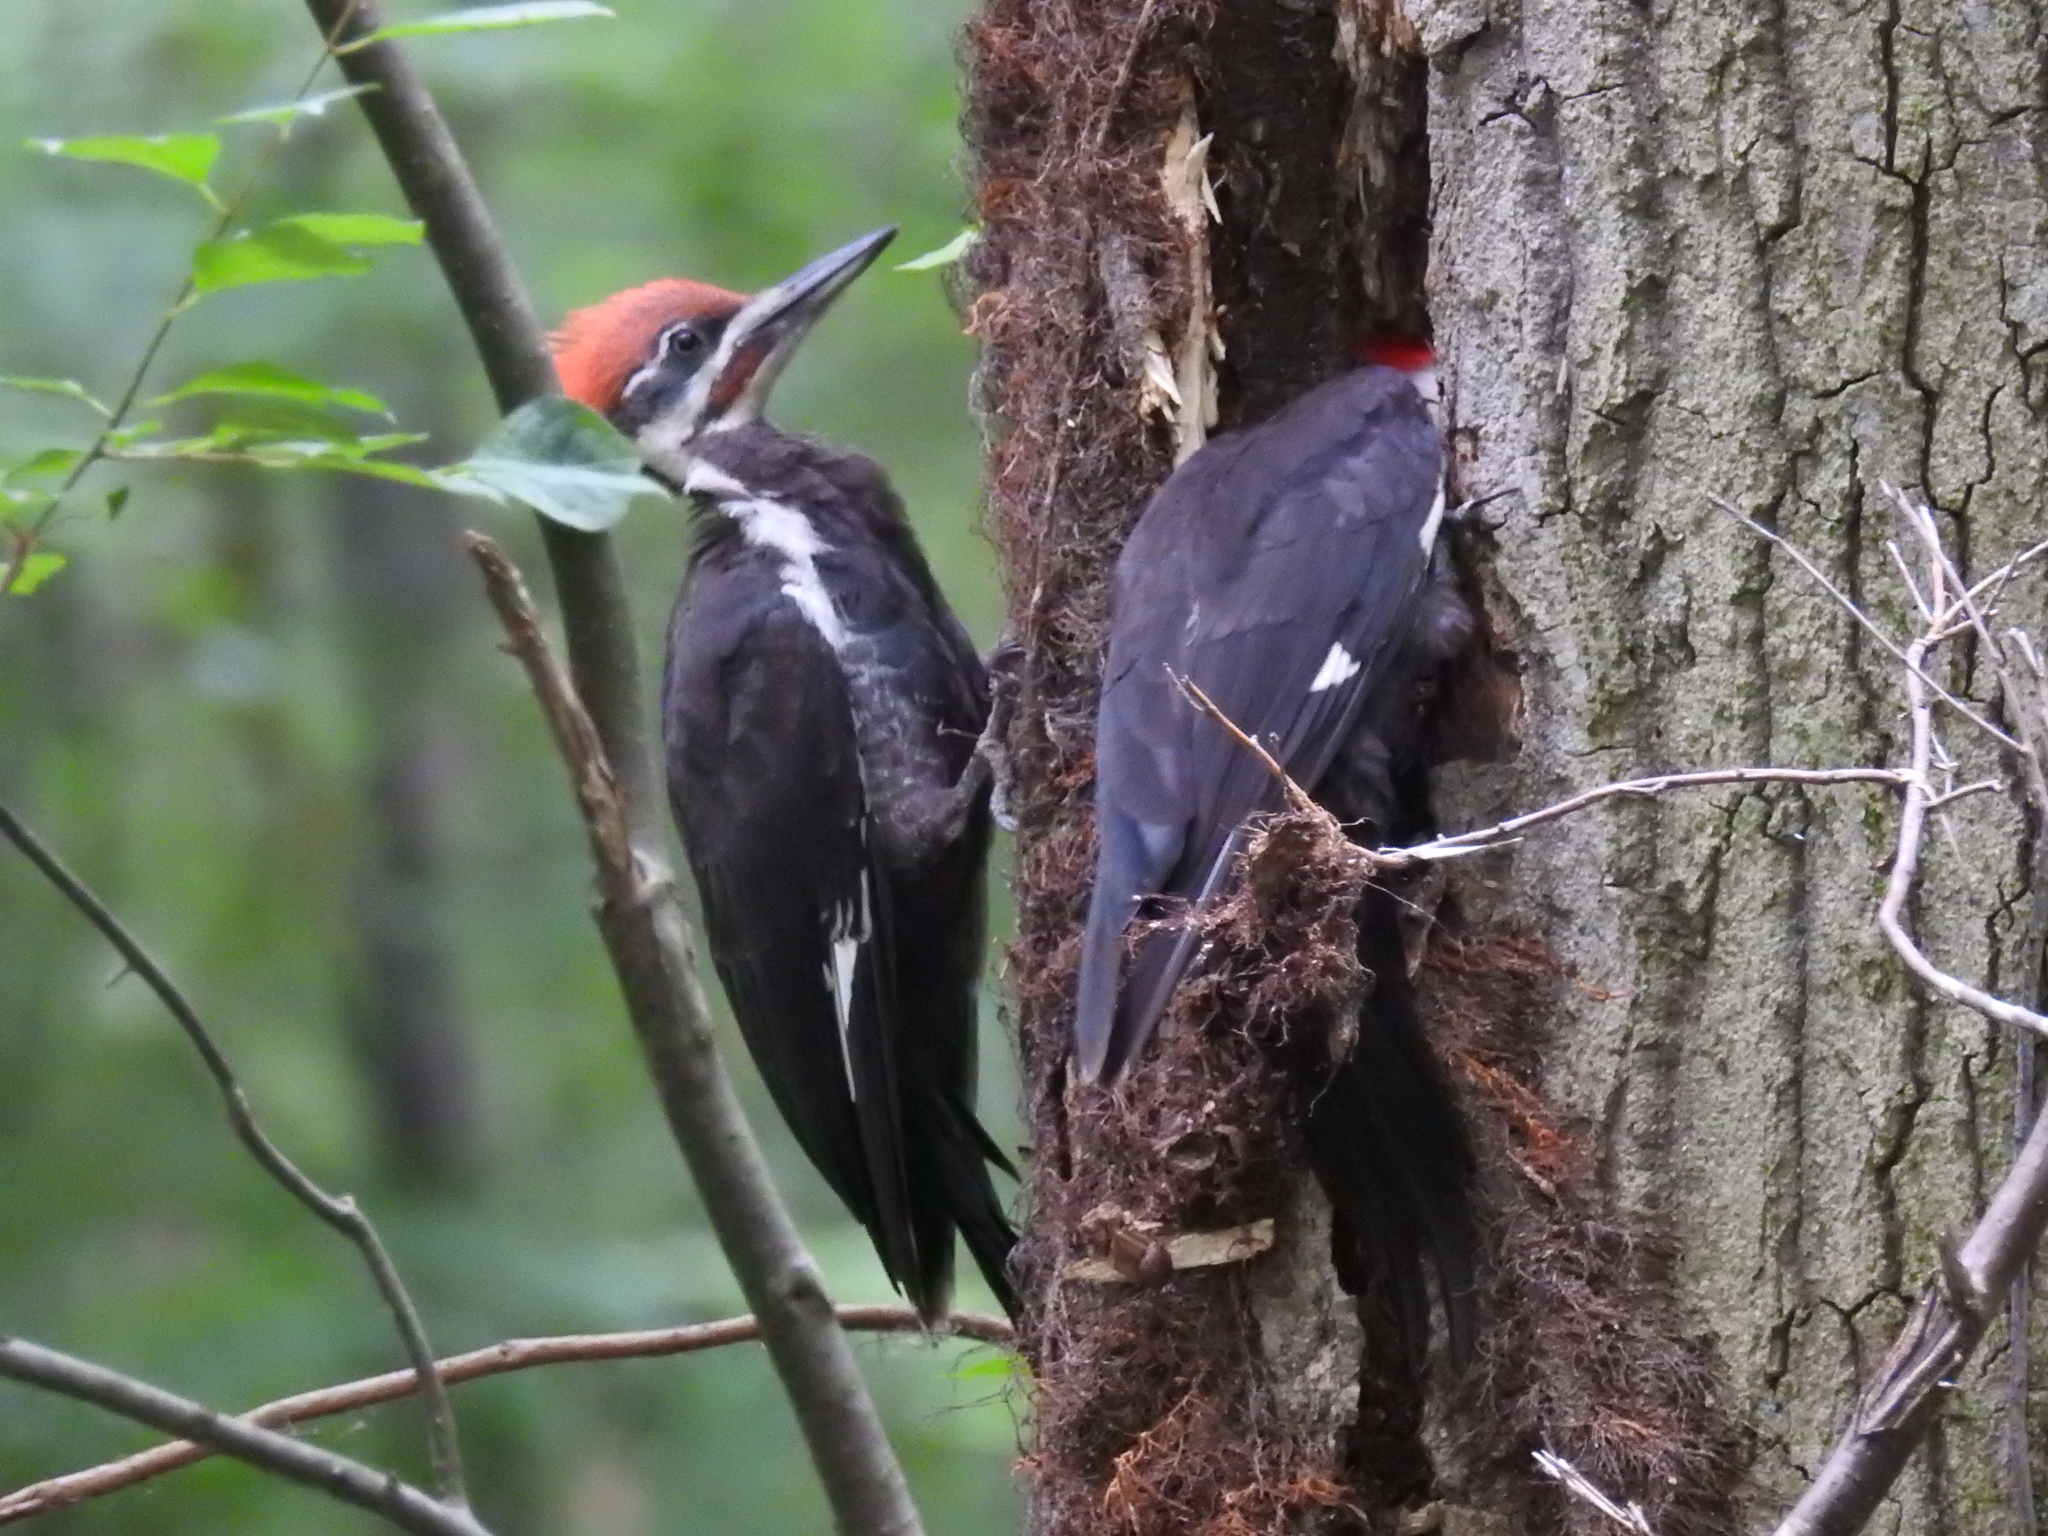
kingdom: Animalia
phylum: Chordata
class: Aves
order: Piciformes
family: Picidae
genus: Dryocopus
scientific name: Dryocopus pileatus
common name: Pileated woodpecker
